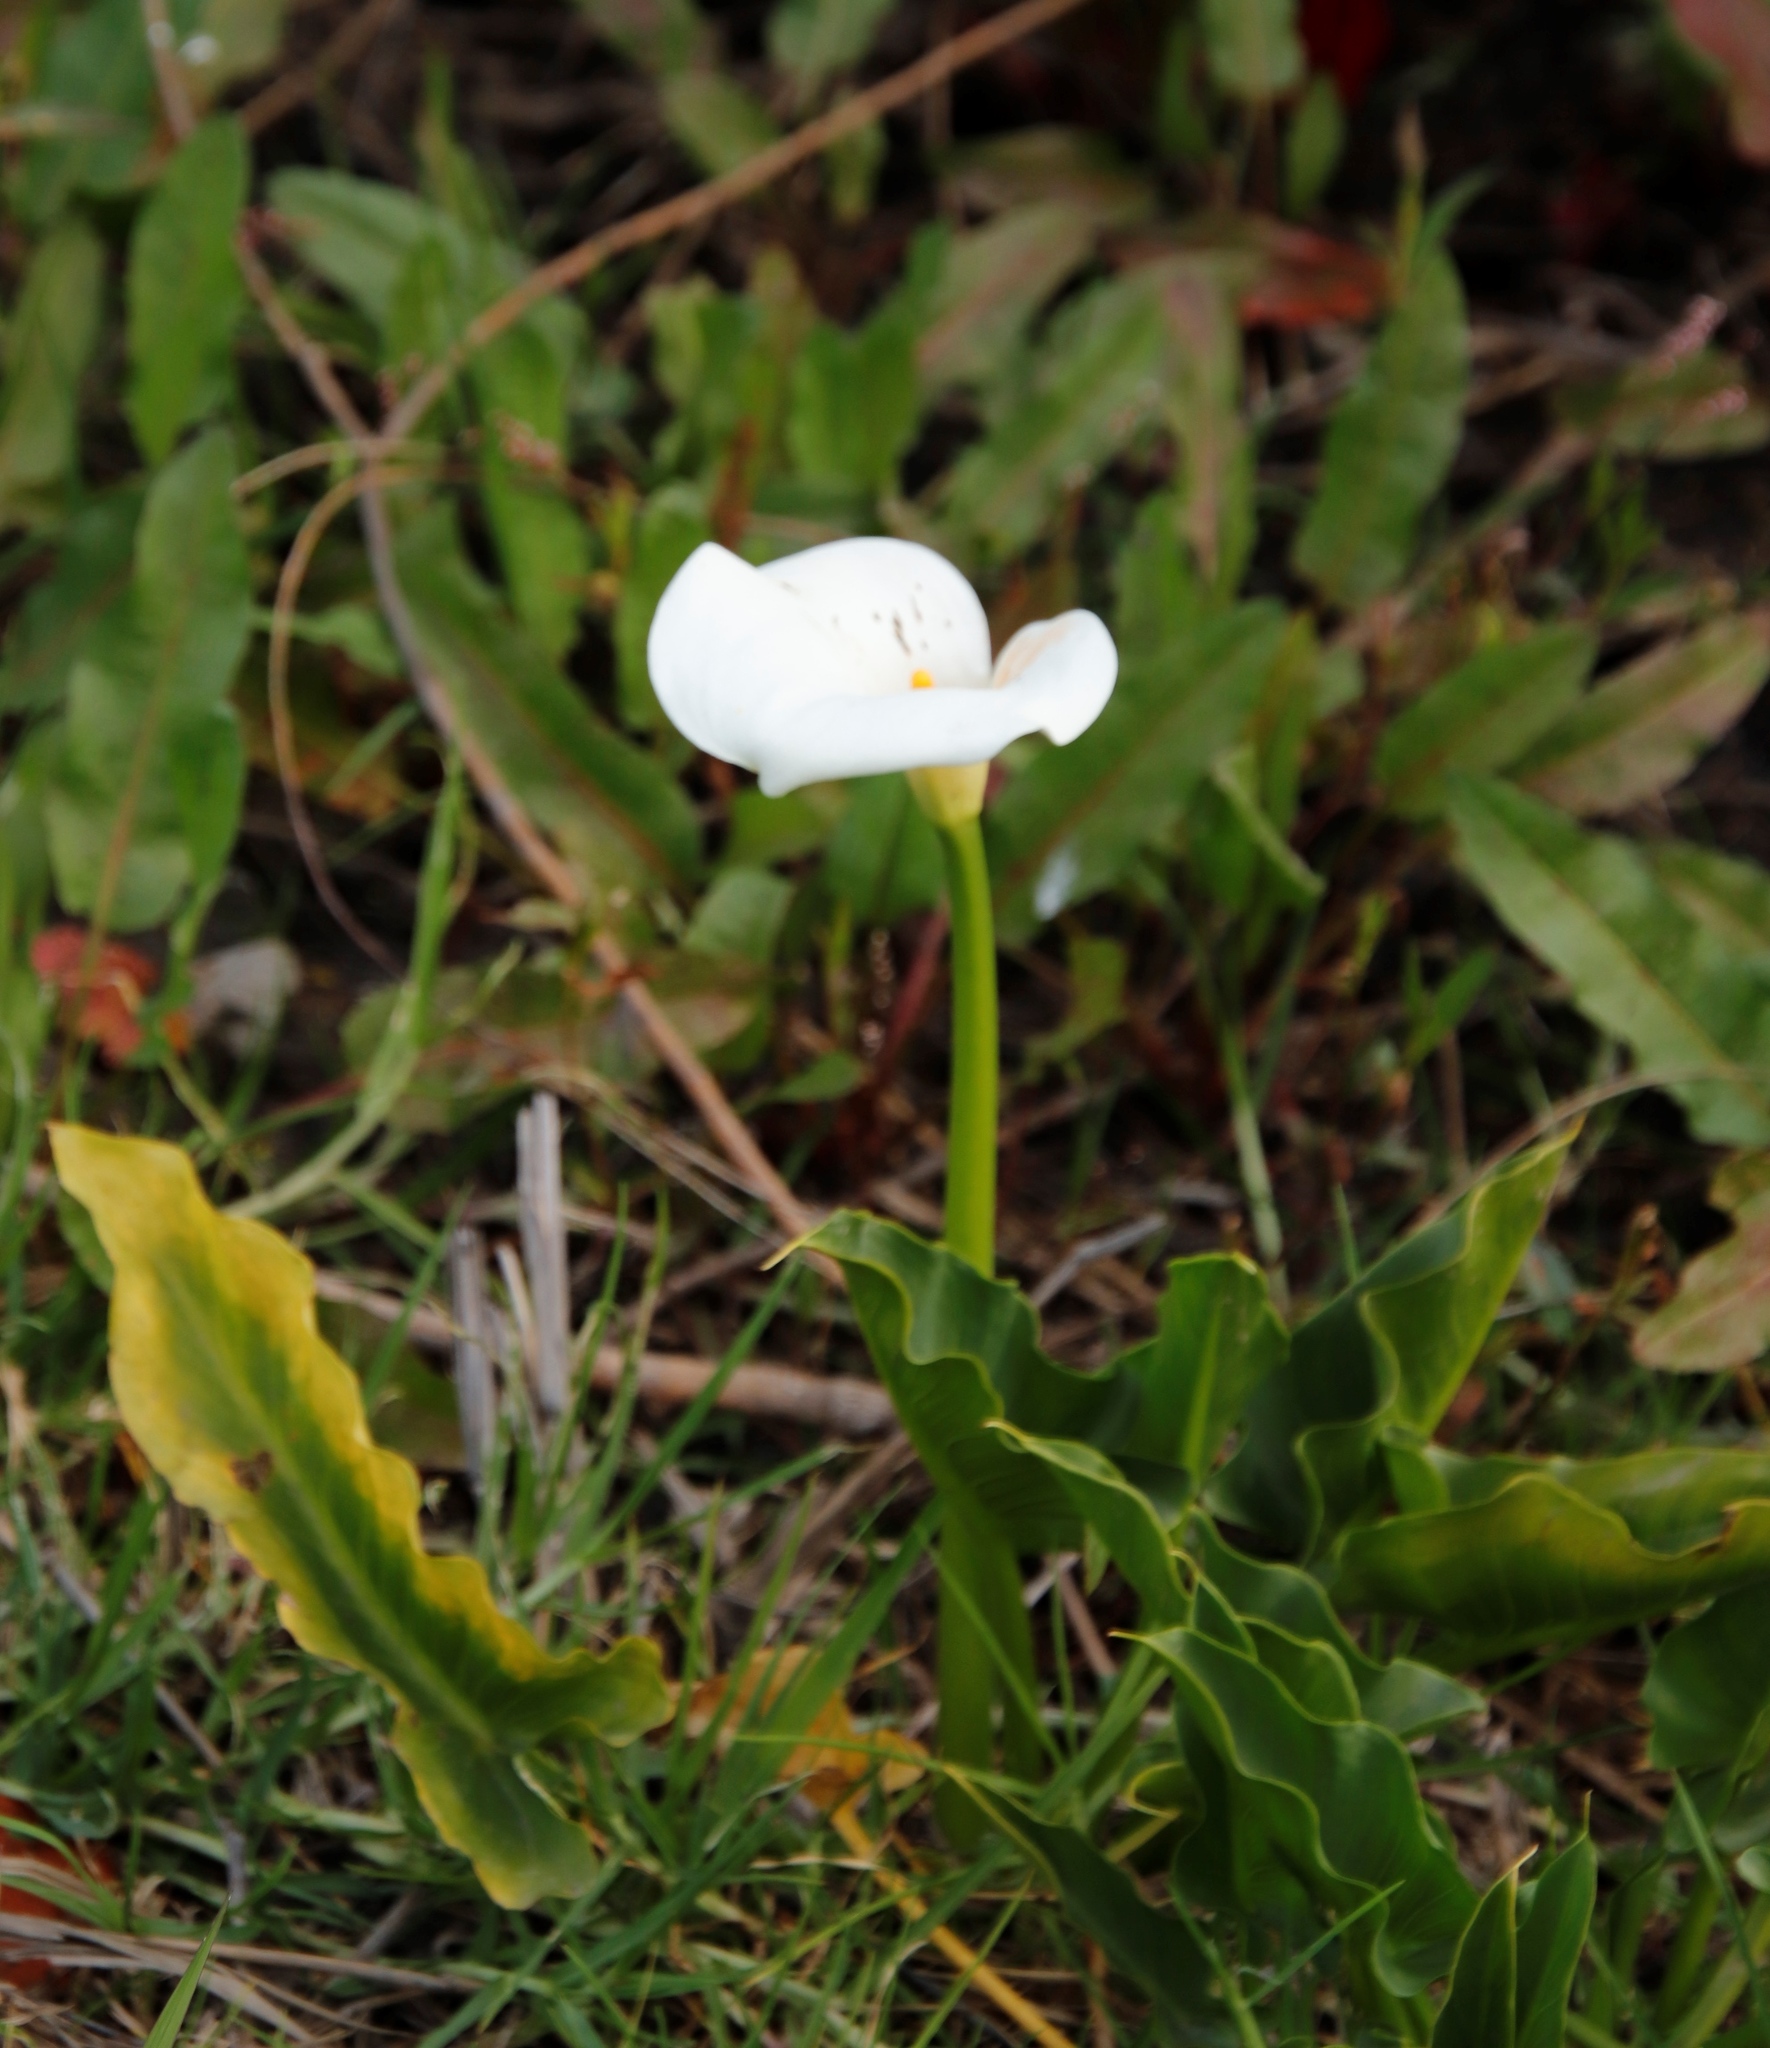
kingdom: Plantae
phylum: Tracheophyta
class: Liliopsida
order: Alismatales
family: Araceae
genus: Zantedeschia
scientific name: Zantedeschia aethiopica
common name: Altar-lily
